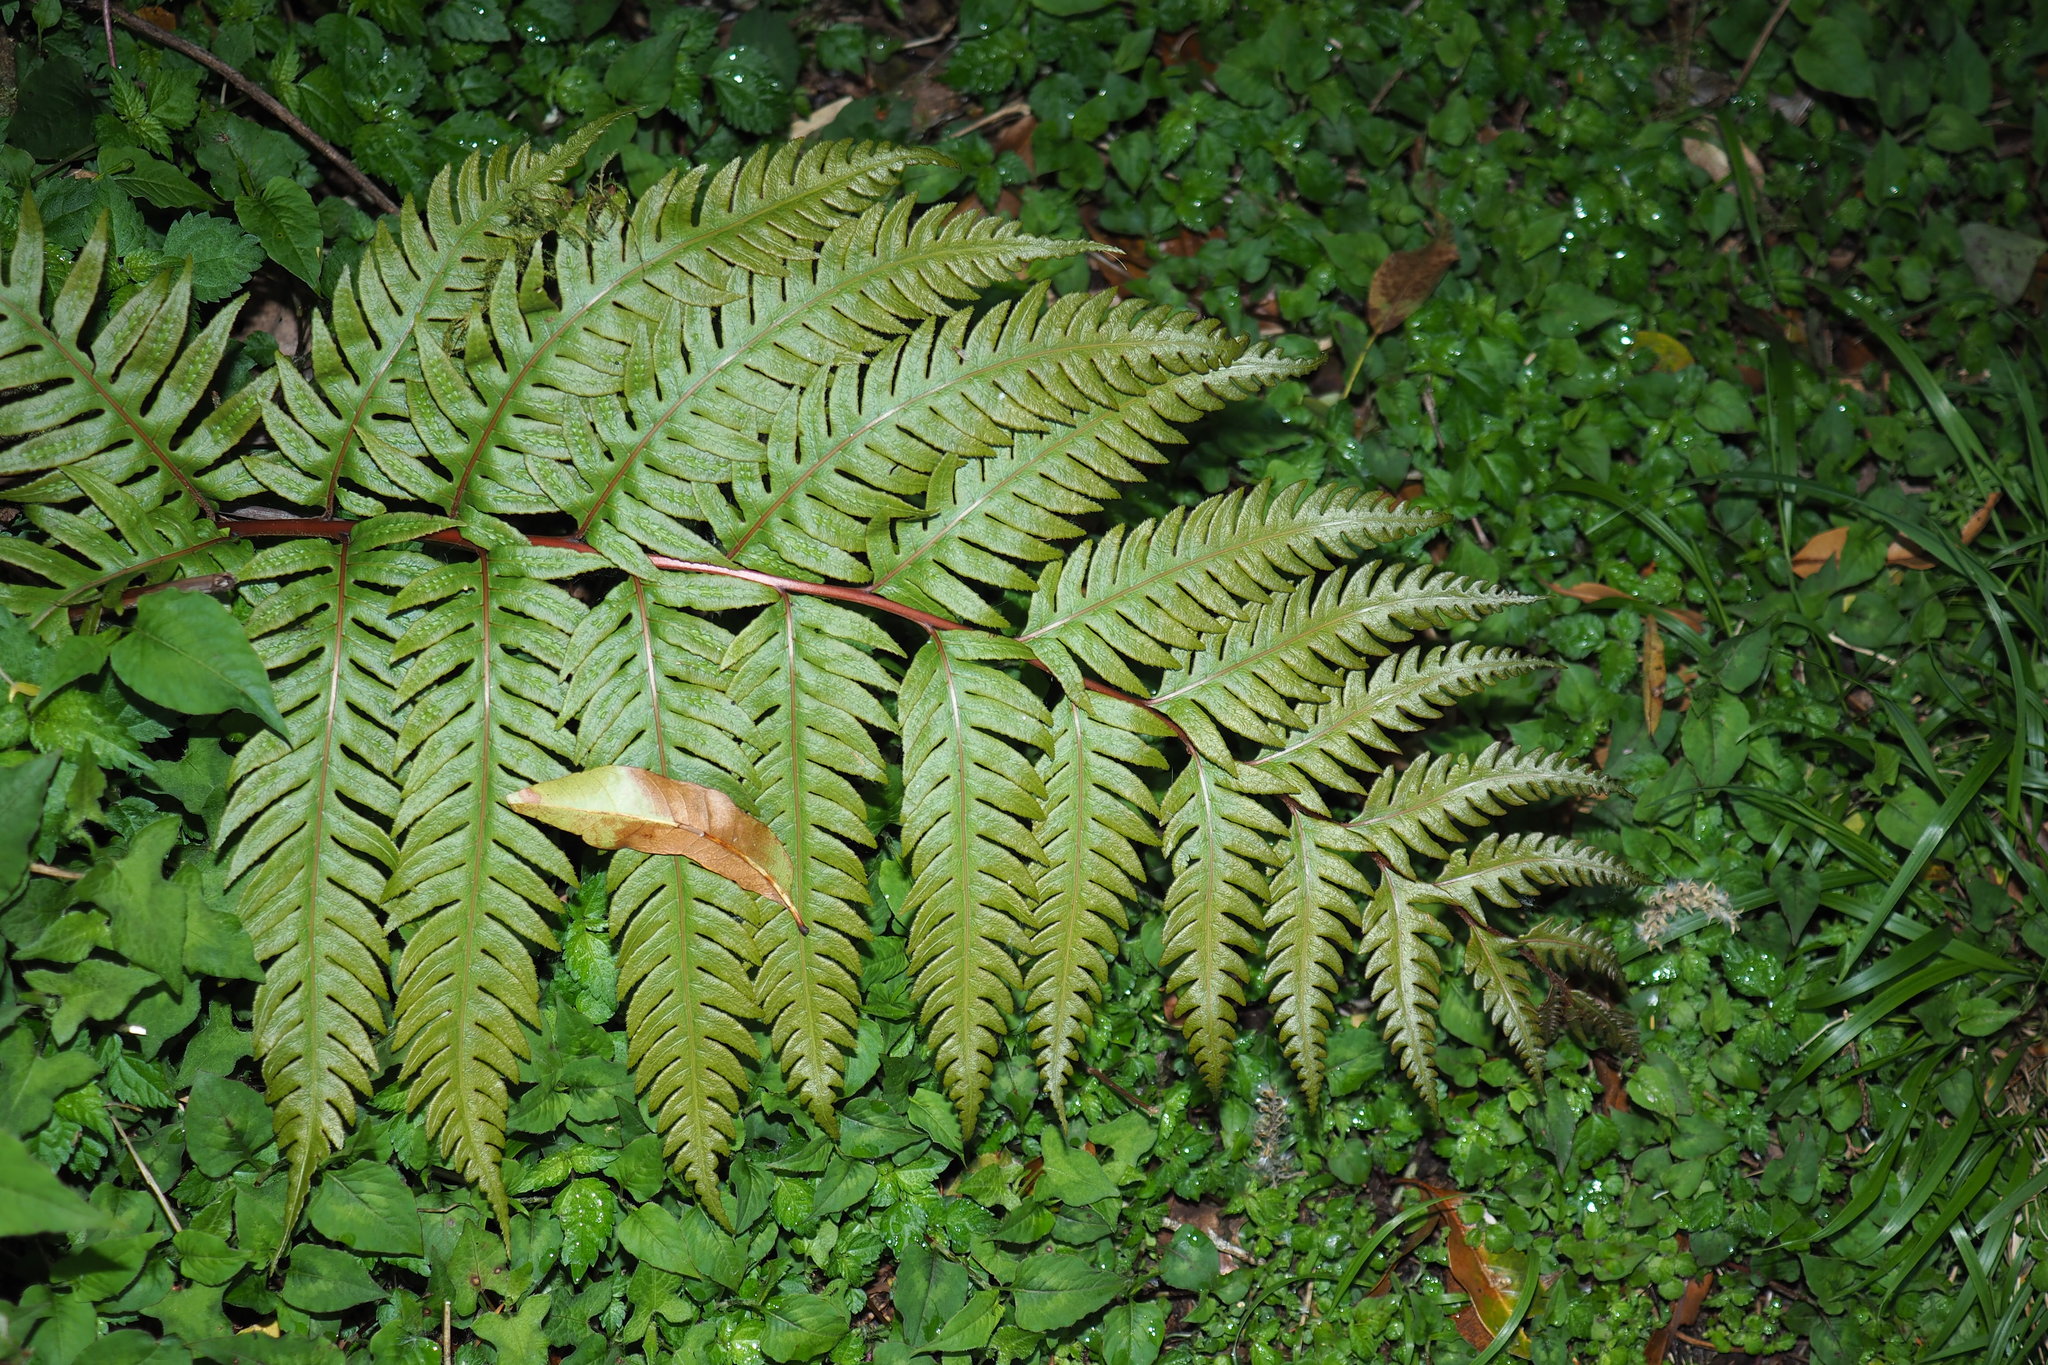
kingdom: Plantae
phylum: Tracheophyta
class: Polypodiopsida
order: Polypodiales
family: Blechnaceae
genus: Woodwardia
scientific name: Woodwardia unigemmata
